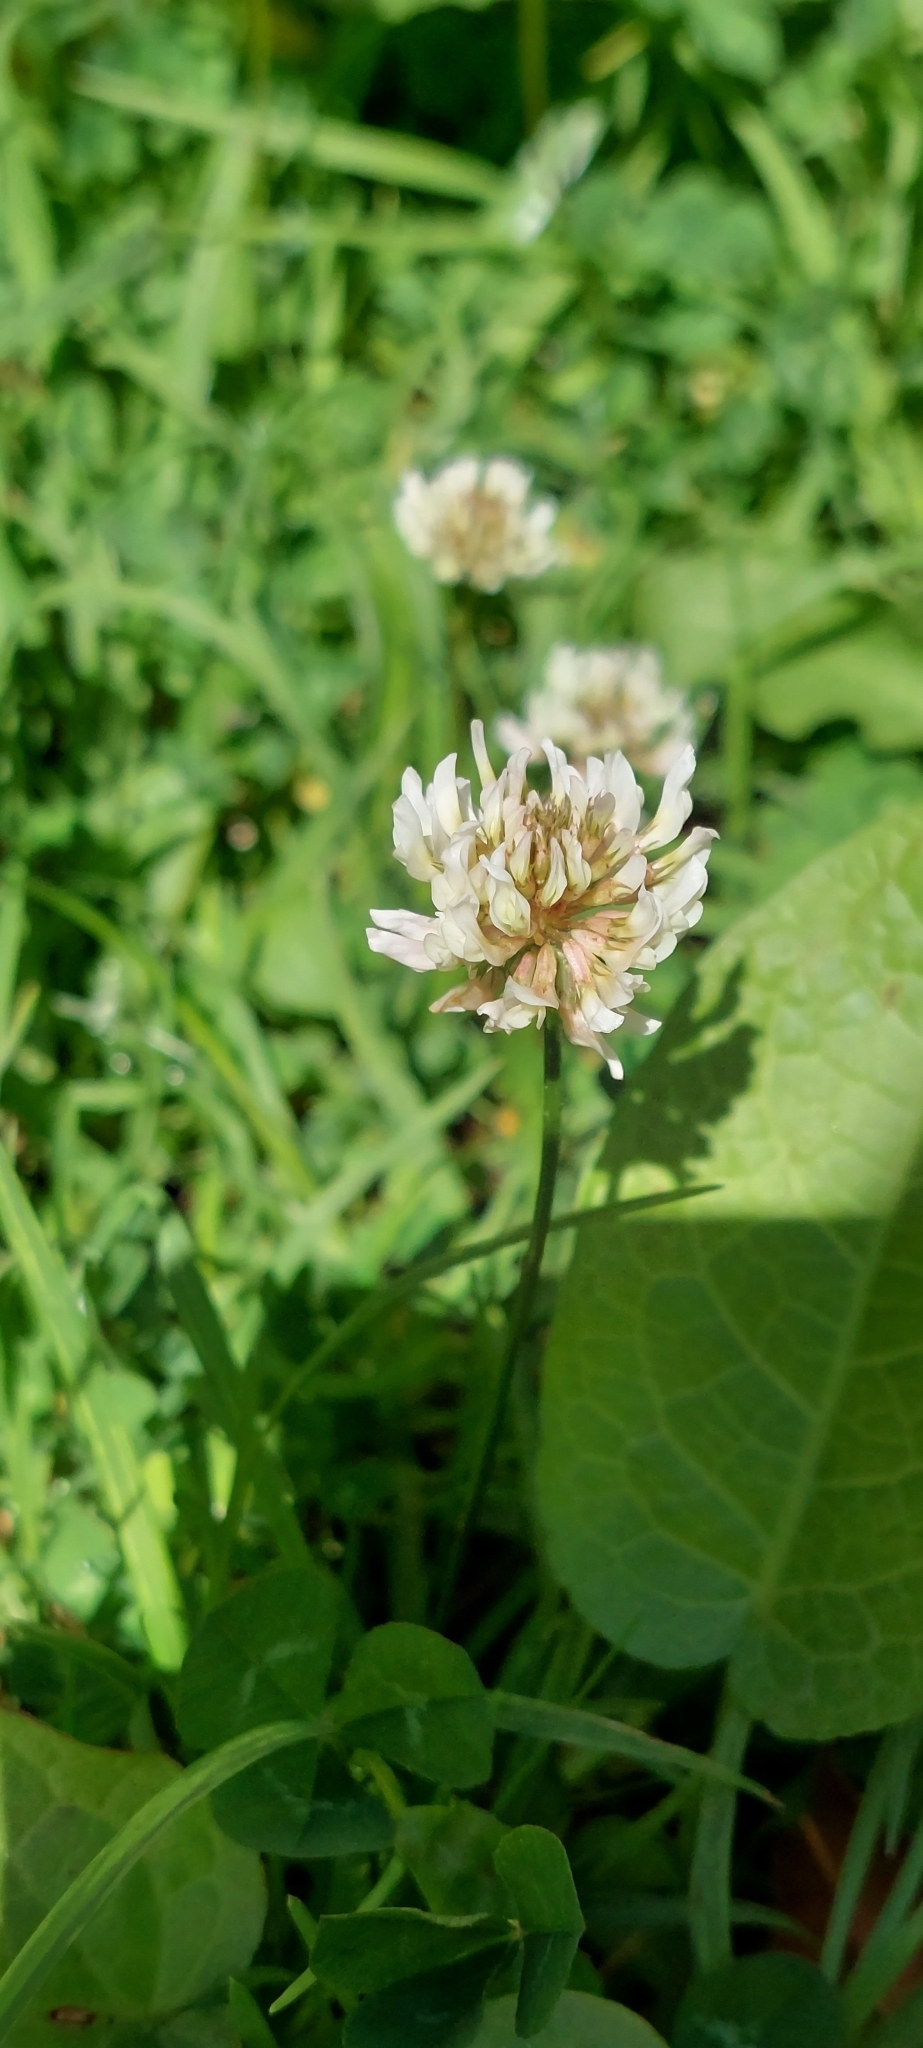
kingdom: Plantae
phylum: Tracheophyta
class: Magnoliopsida
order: Fabales
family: Fabaceae
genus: Trifolium
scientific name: Trifolium repens
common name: White clover
